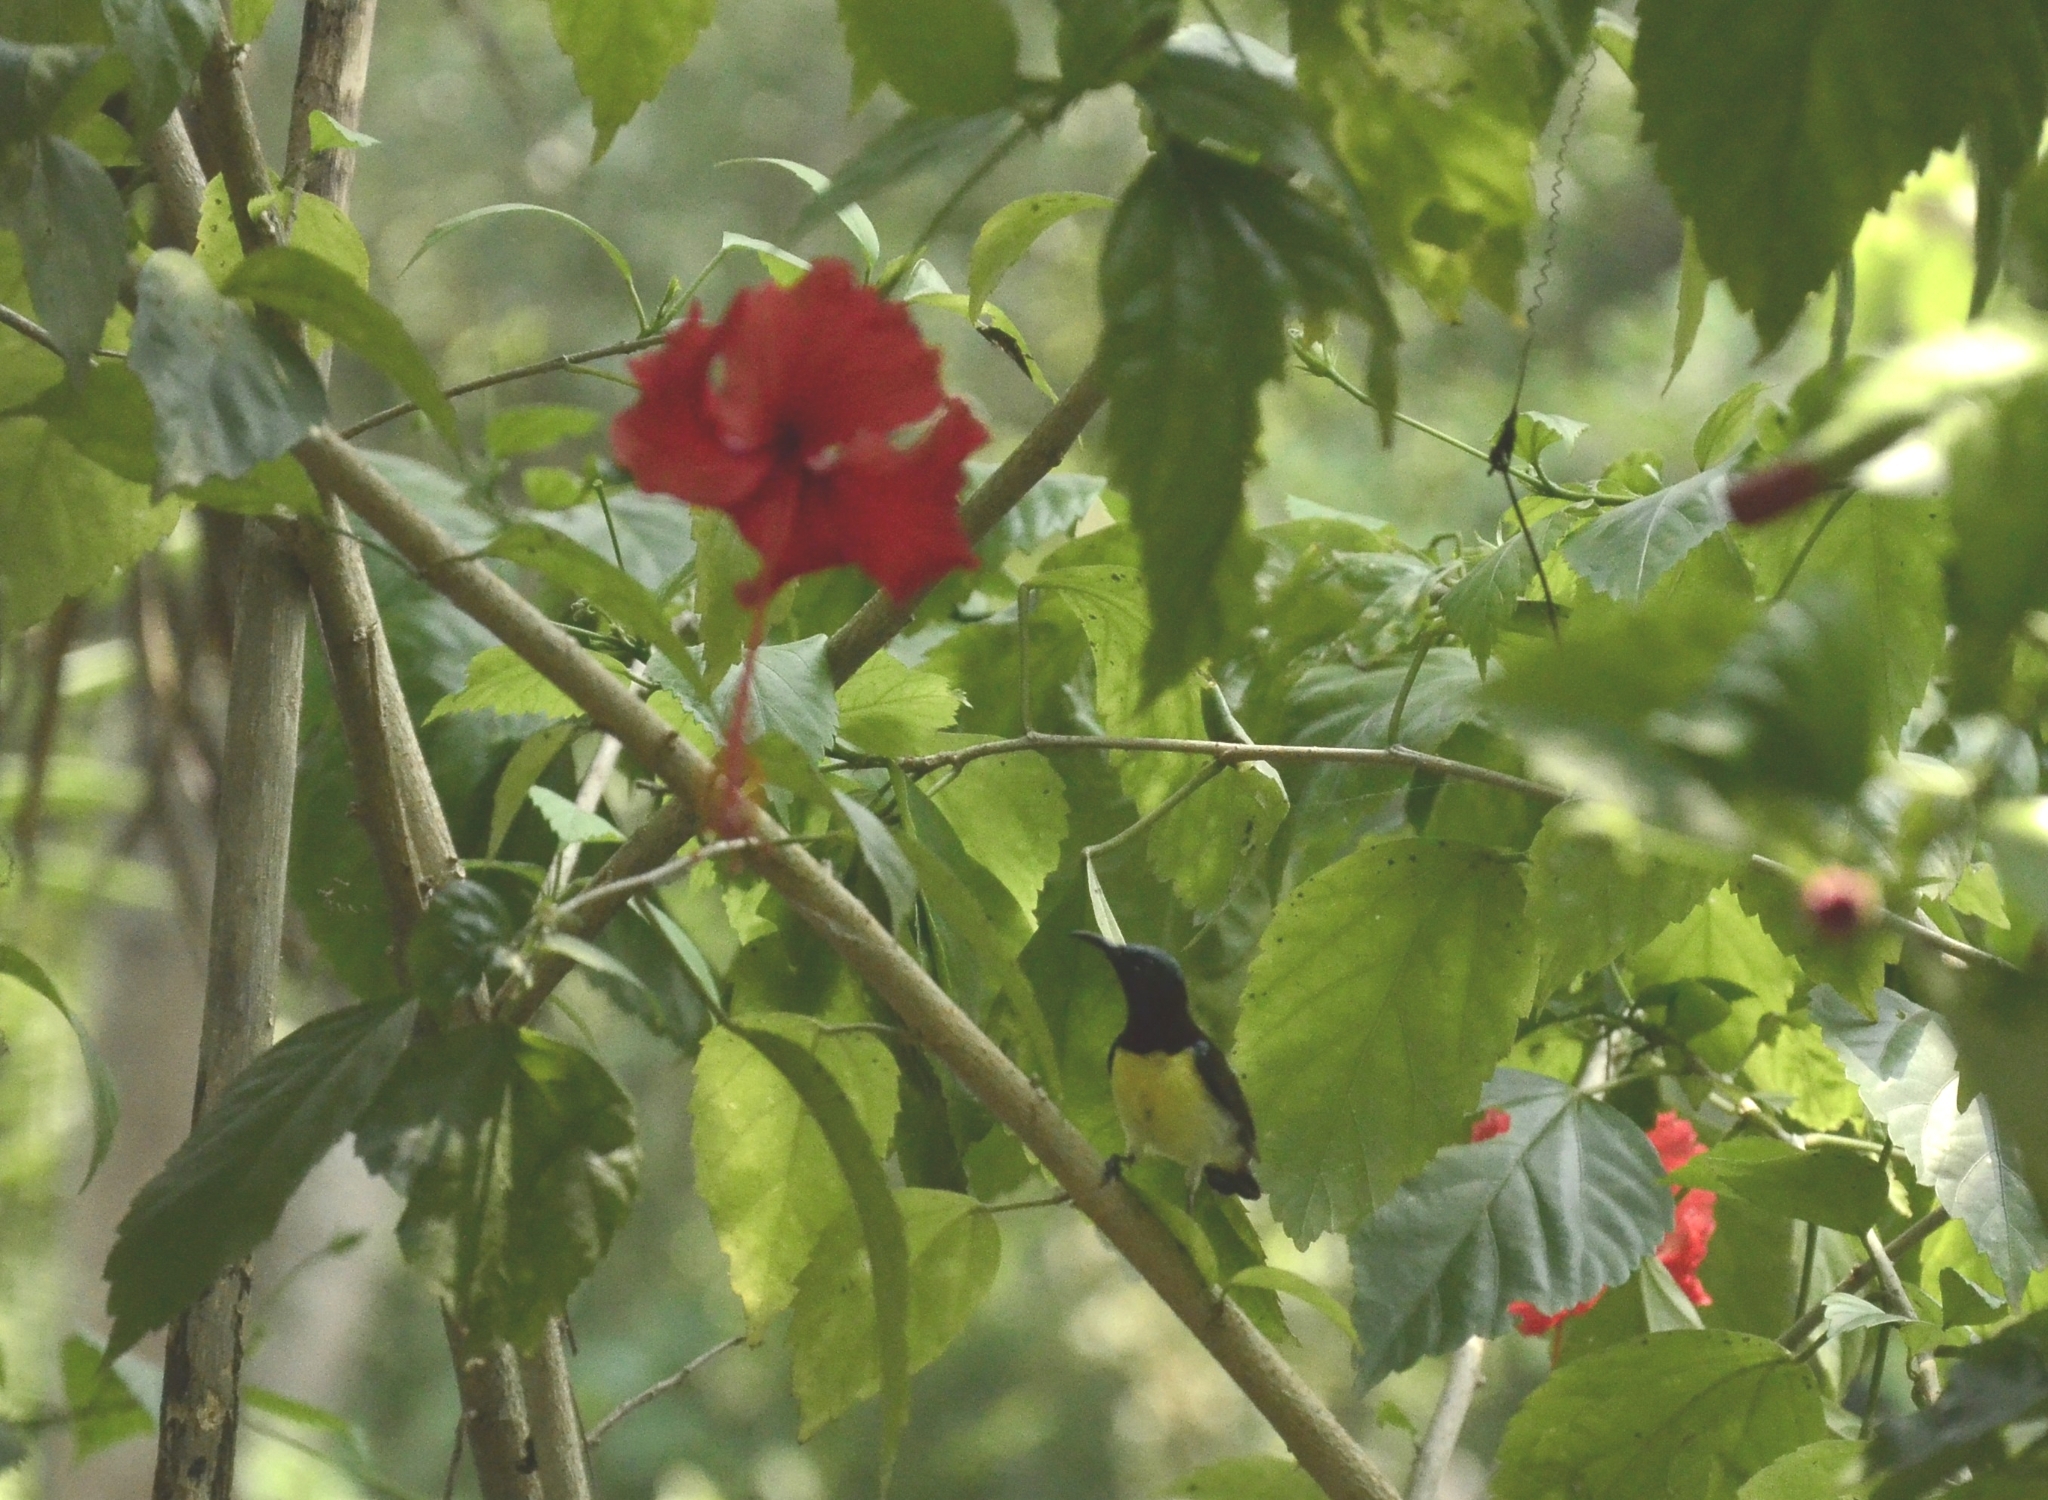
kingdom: Animalia
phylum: Chordata
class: Aves
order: Passeriformes
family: Nectariniidae
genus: Leptocoma
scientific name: Leptocoma zeylonica
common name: Purple-rumped sunbird
